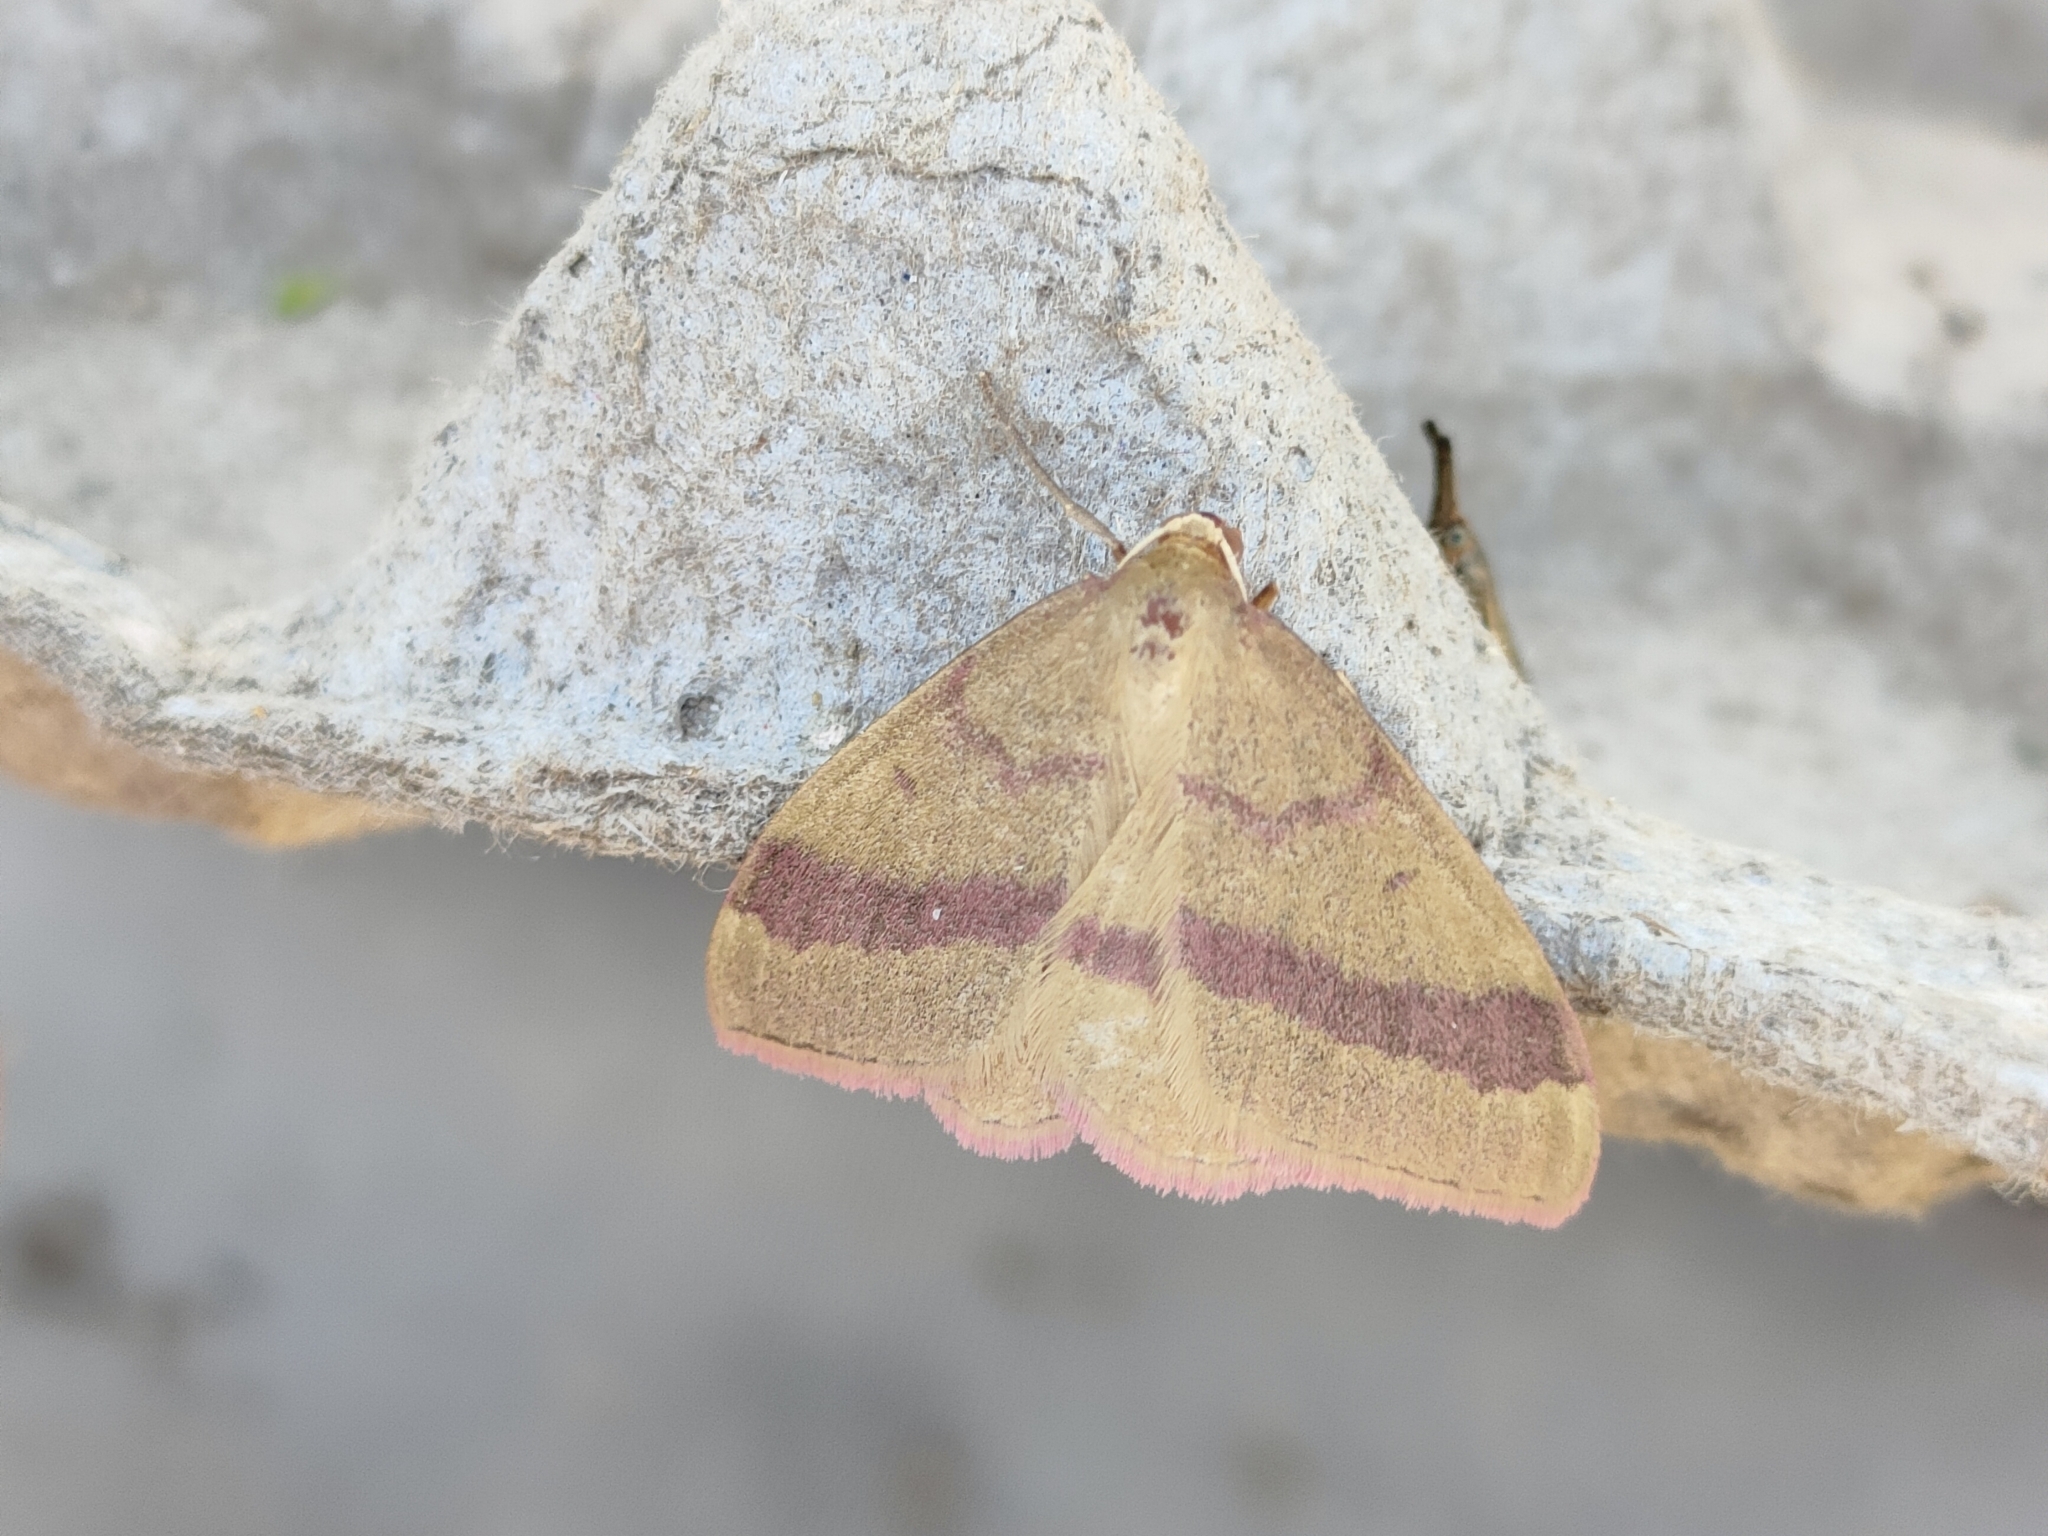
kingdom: Animalia
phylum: Arthropoda
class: Insecta
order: Lepidoptera
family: Geometridae
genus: Rhodostrophia
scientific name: Rhodostrophia calabra
